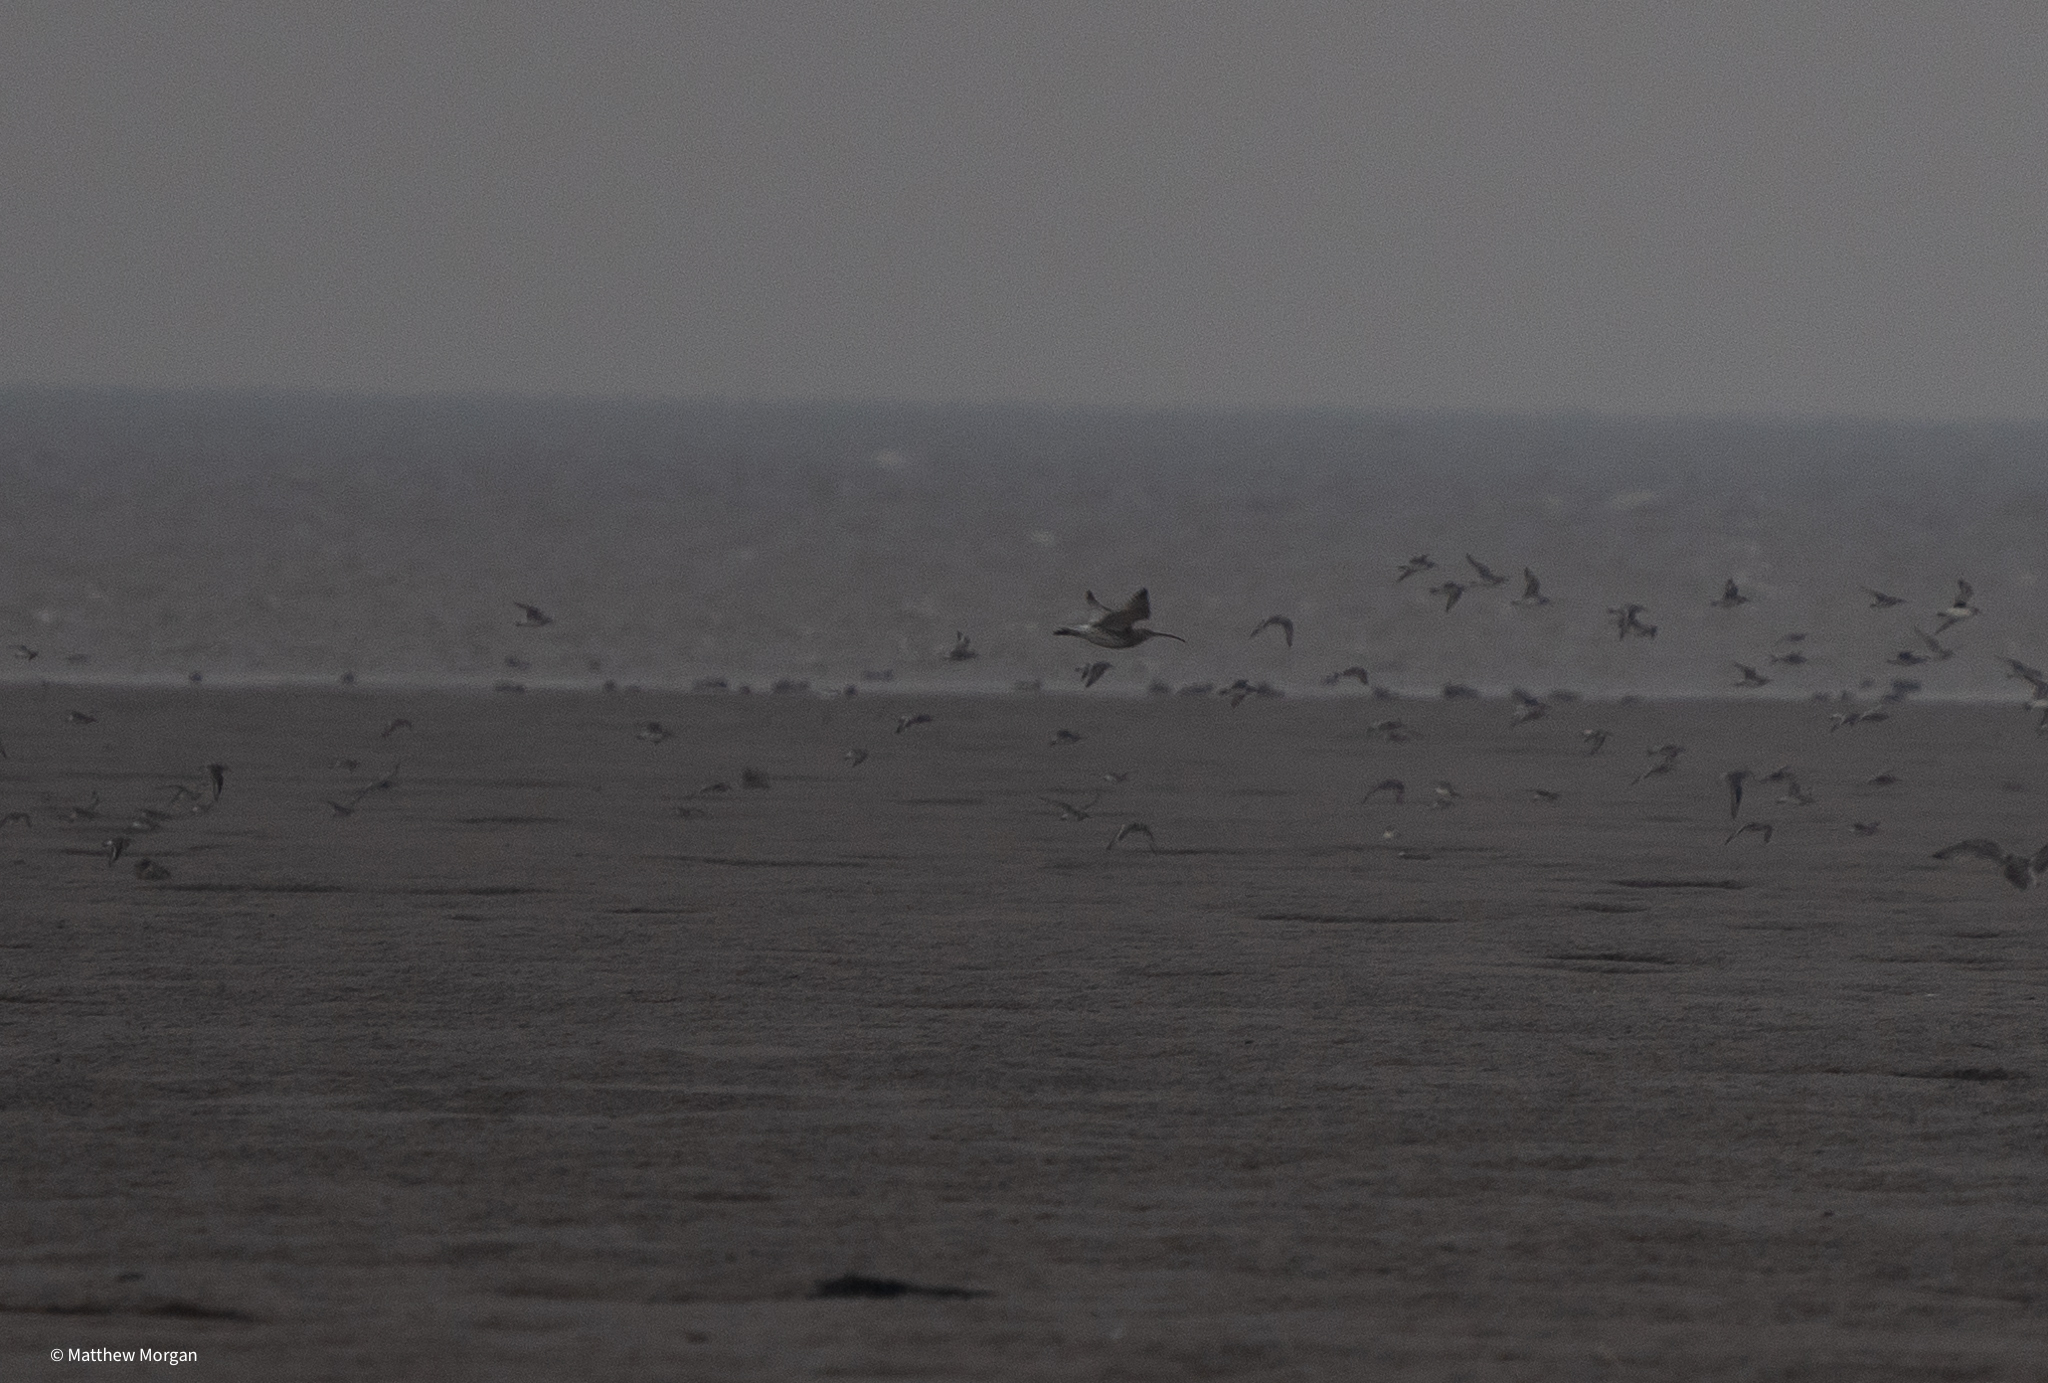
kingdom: Animalia
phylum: Chordata
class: Aves
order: Charadriiformes
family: Scolopacidae
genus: Numenius
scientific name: Numenius arquata
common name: Eurasian curlew
